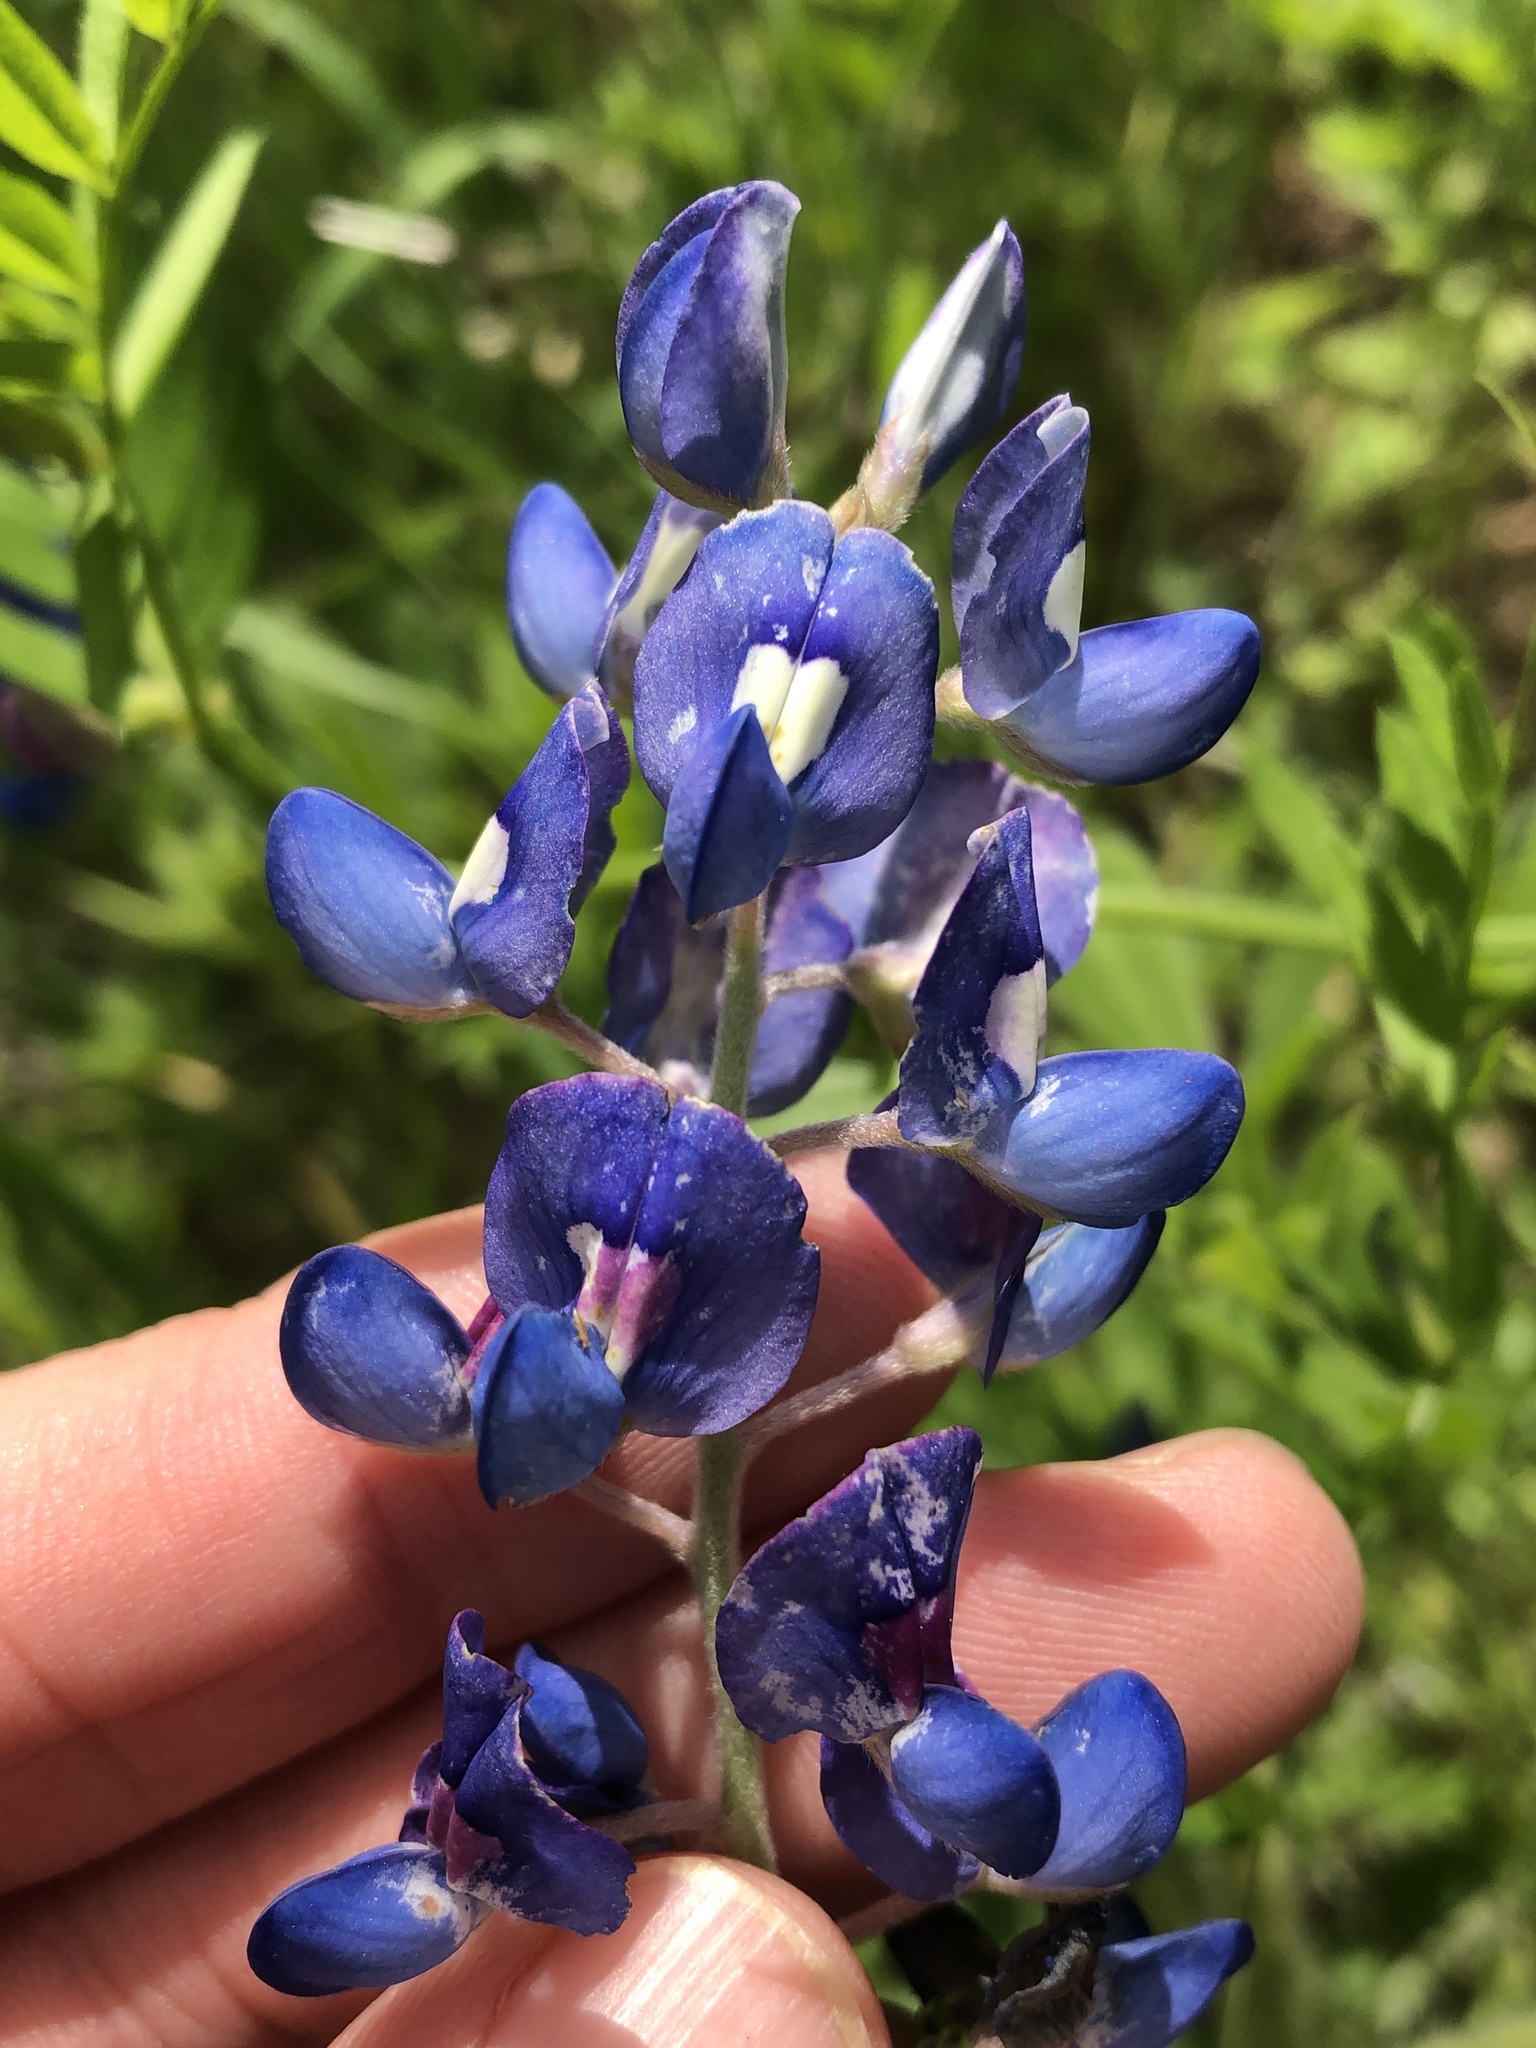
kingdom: Plantae
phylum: Tracheophyta
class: Magnoliopsida
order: Fabales
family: Fabaceae
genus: Lupinus
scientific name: Lupinus texensis
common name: Texas bluebonnet
